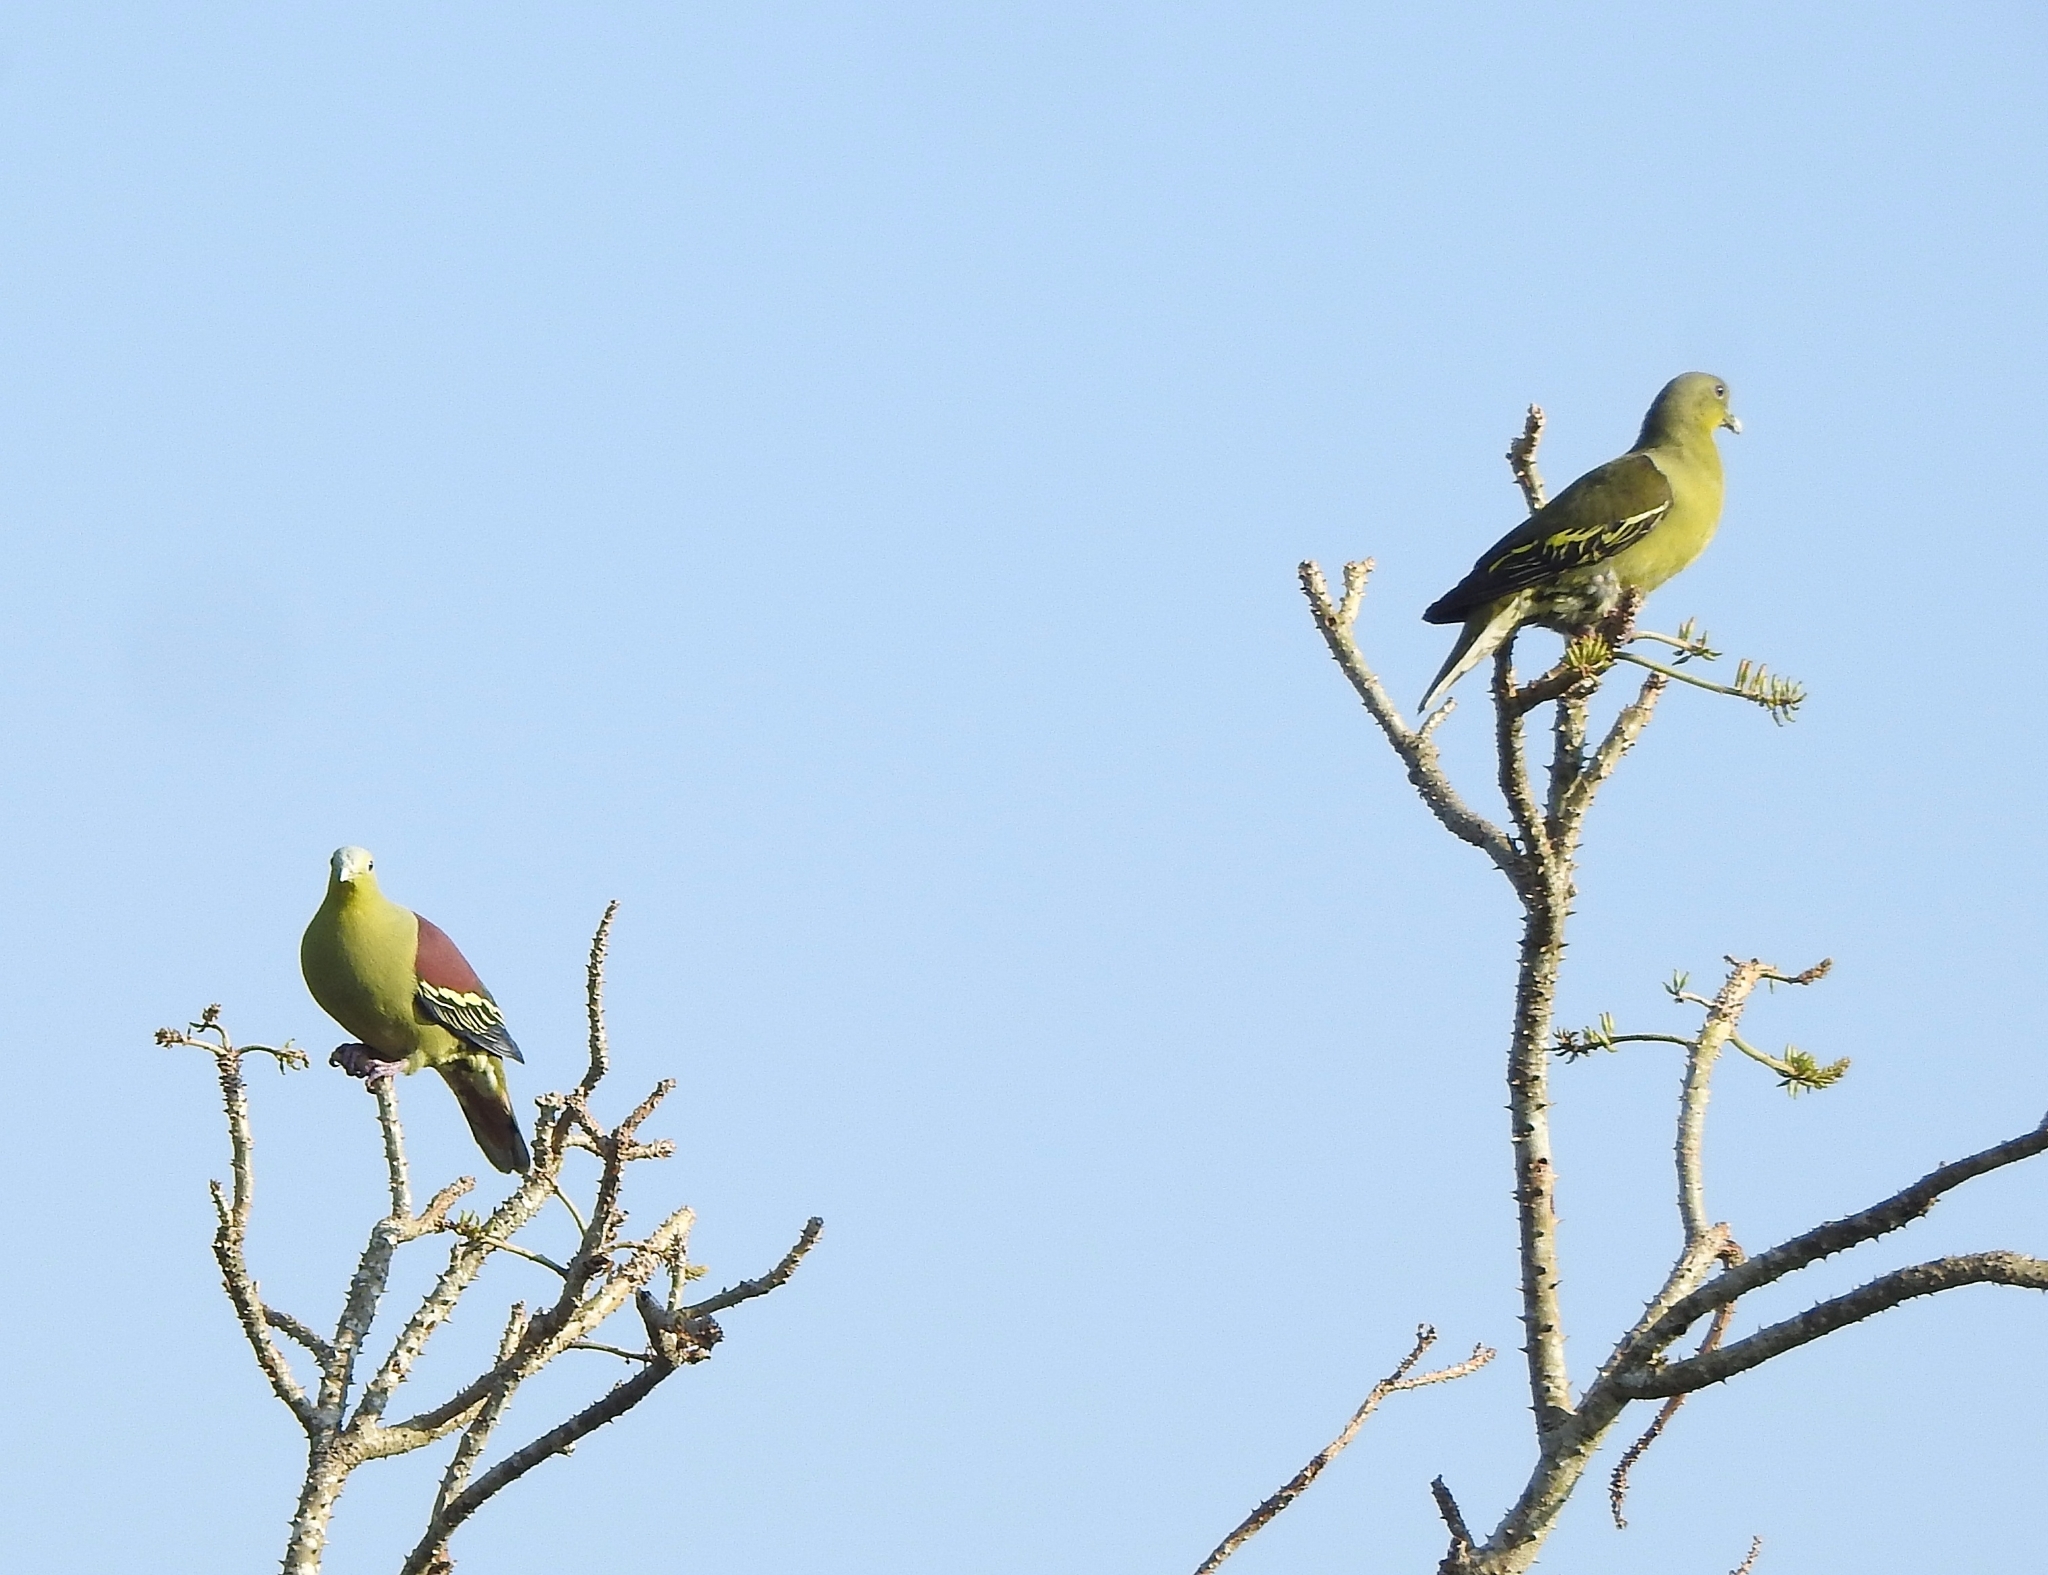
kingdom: Animalia
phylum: Chordata
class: Aves
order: Columbiformes
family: Columbidae
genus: Treron
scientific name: Treron affinis
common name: Grey-fronted green pigeon
